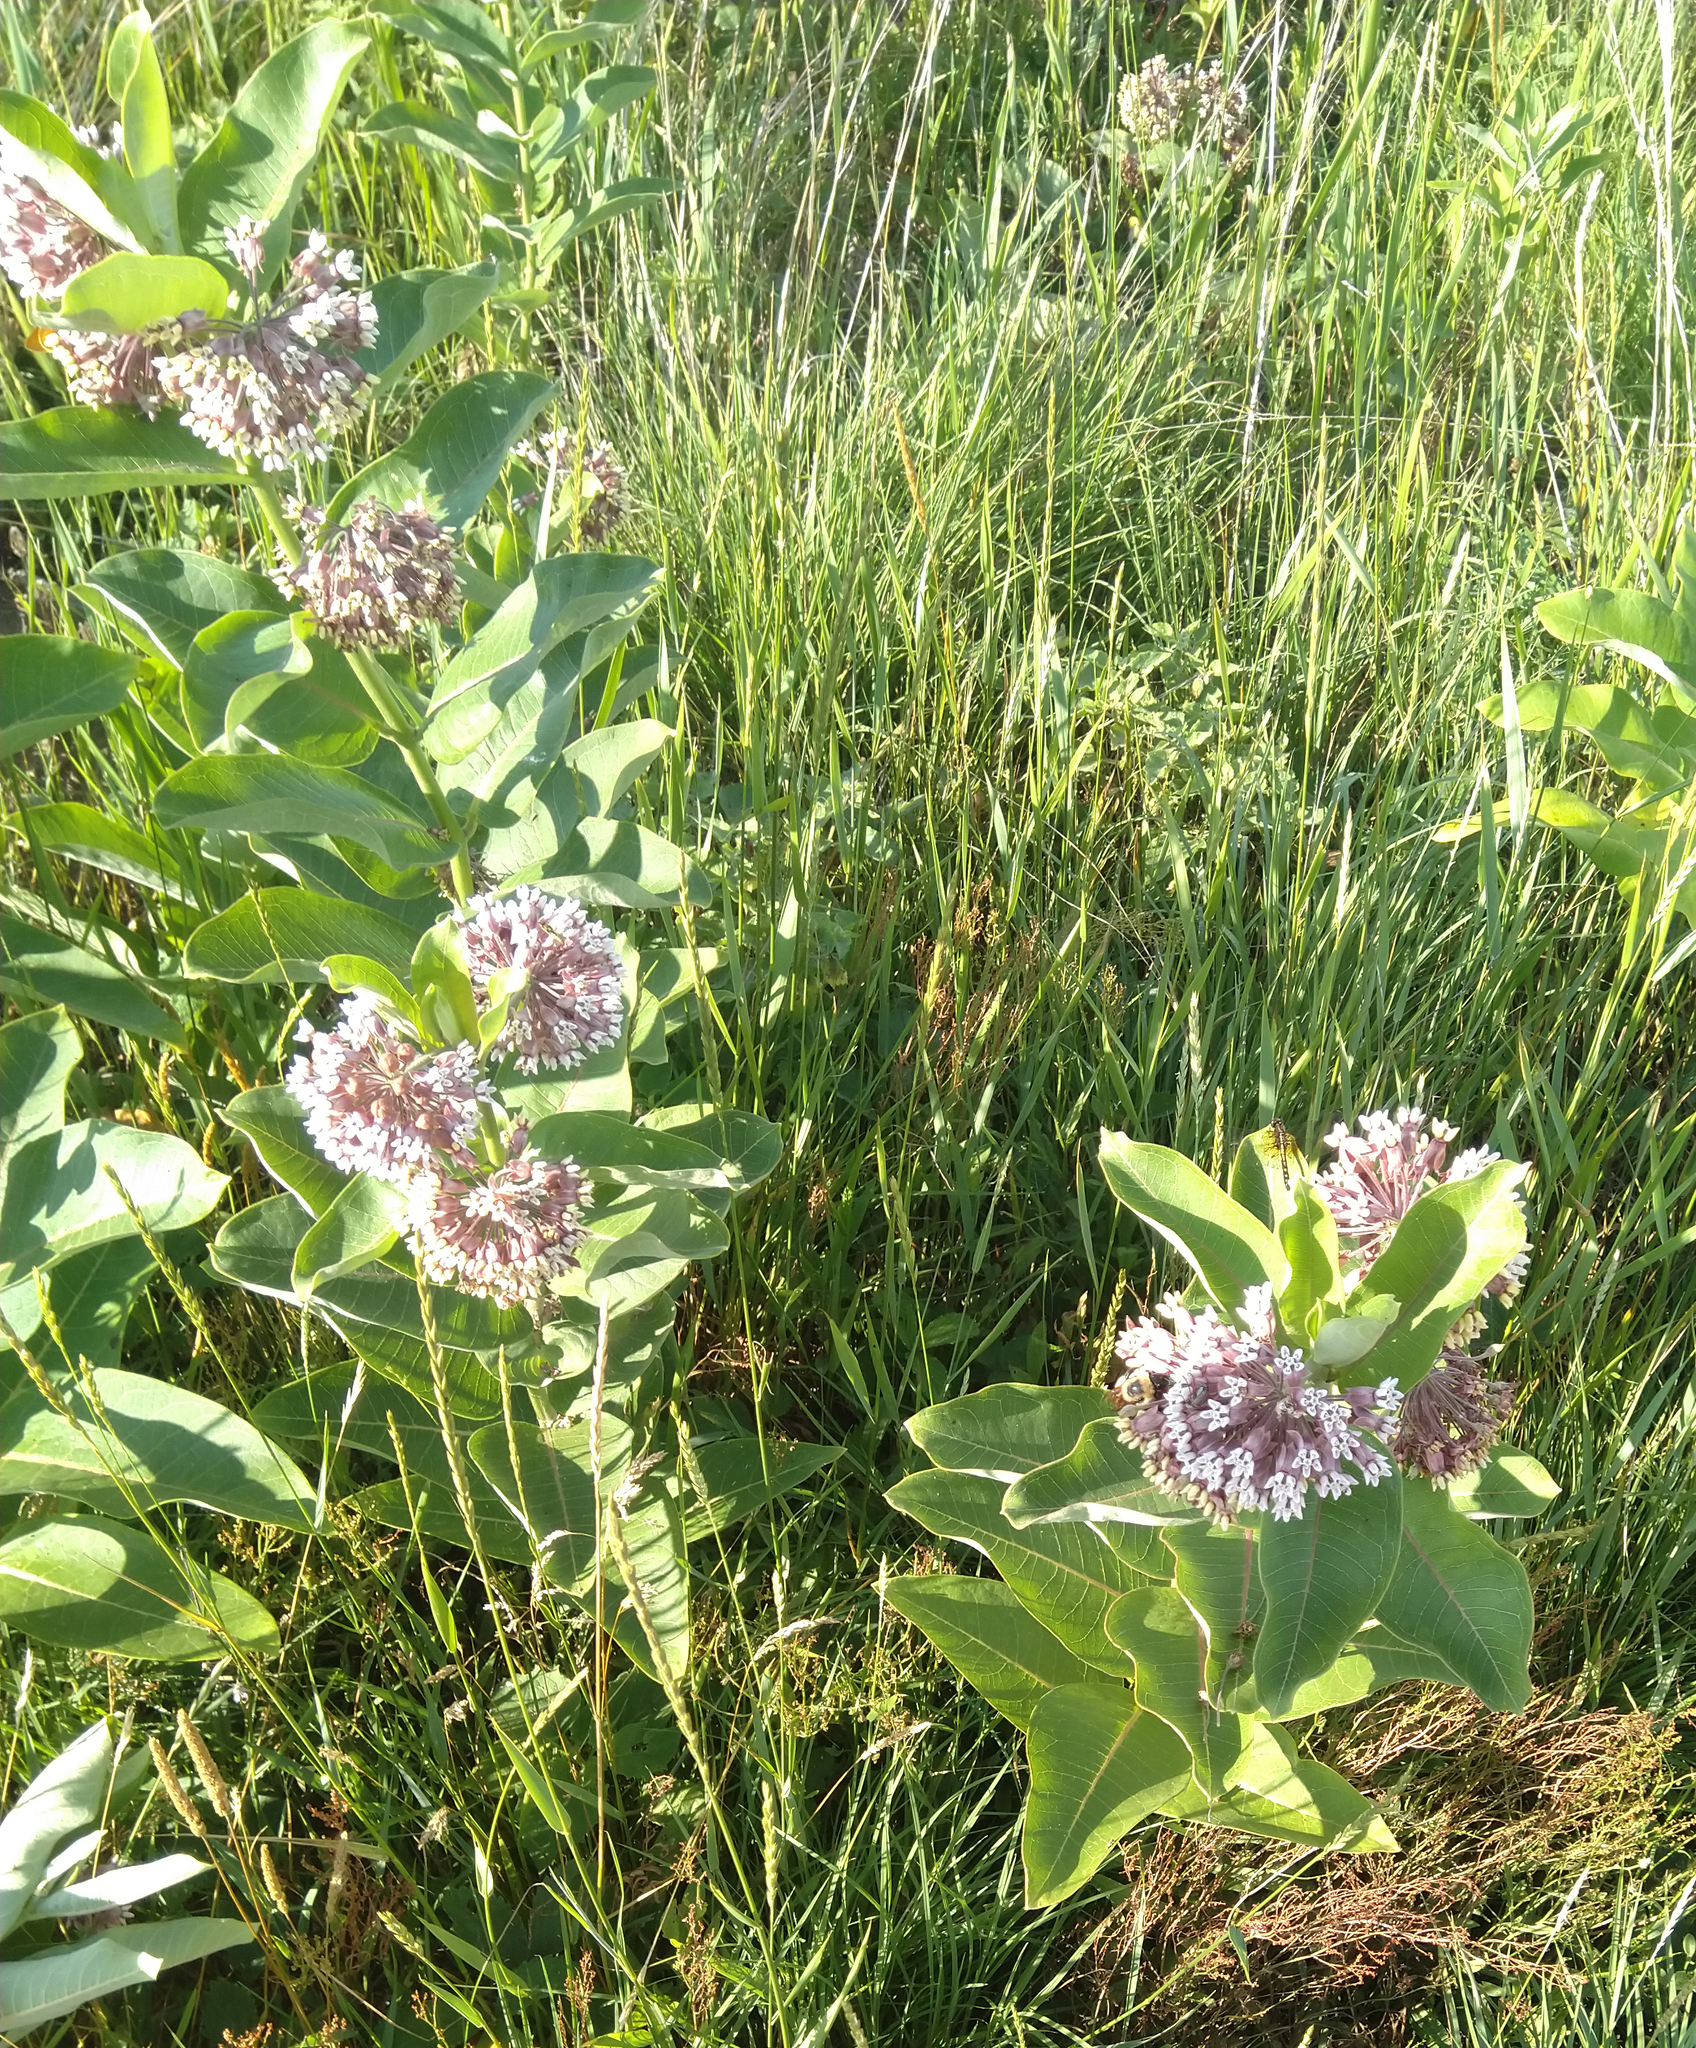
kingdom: Plantae
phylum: Tracheophyta
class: Magnoliopsida
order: Gentianales
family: Apocynaceae
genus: Asclepias
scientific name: Asclepias syriaca
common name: Common milkweed
